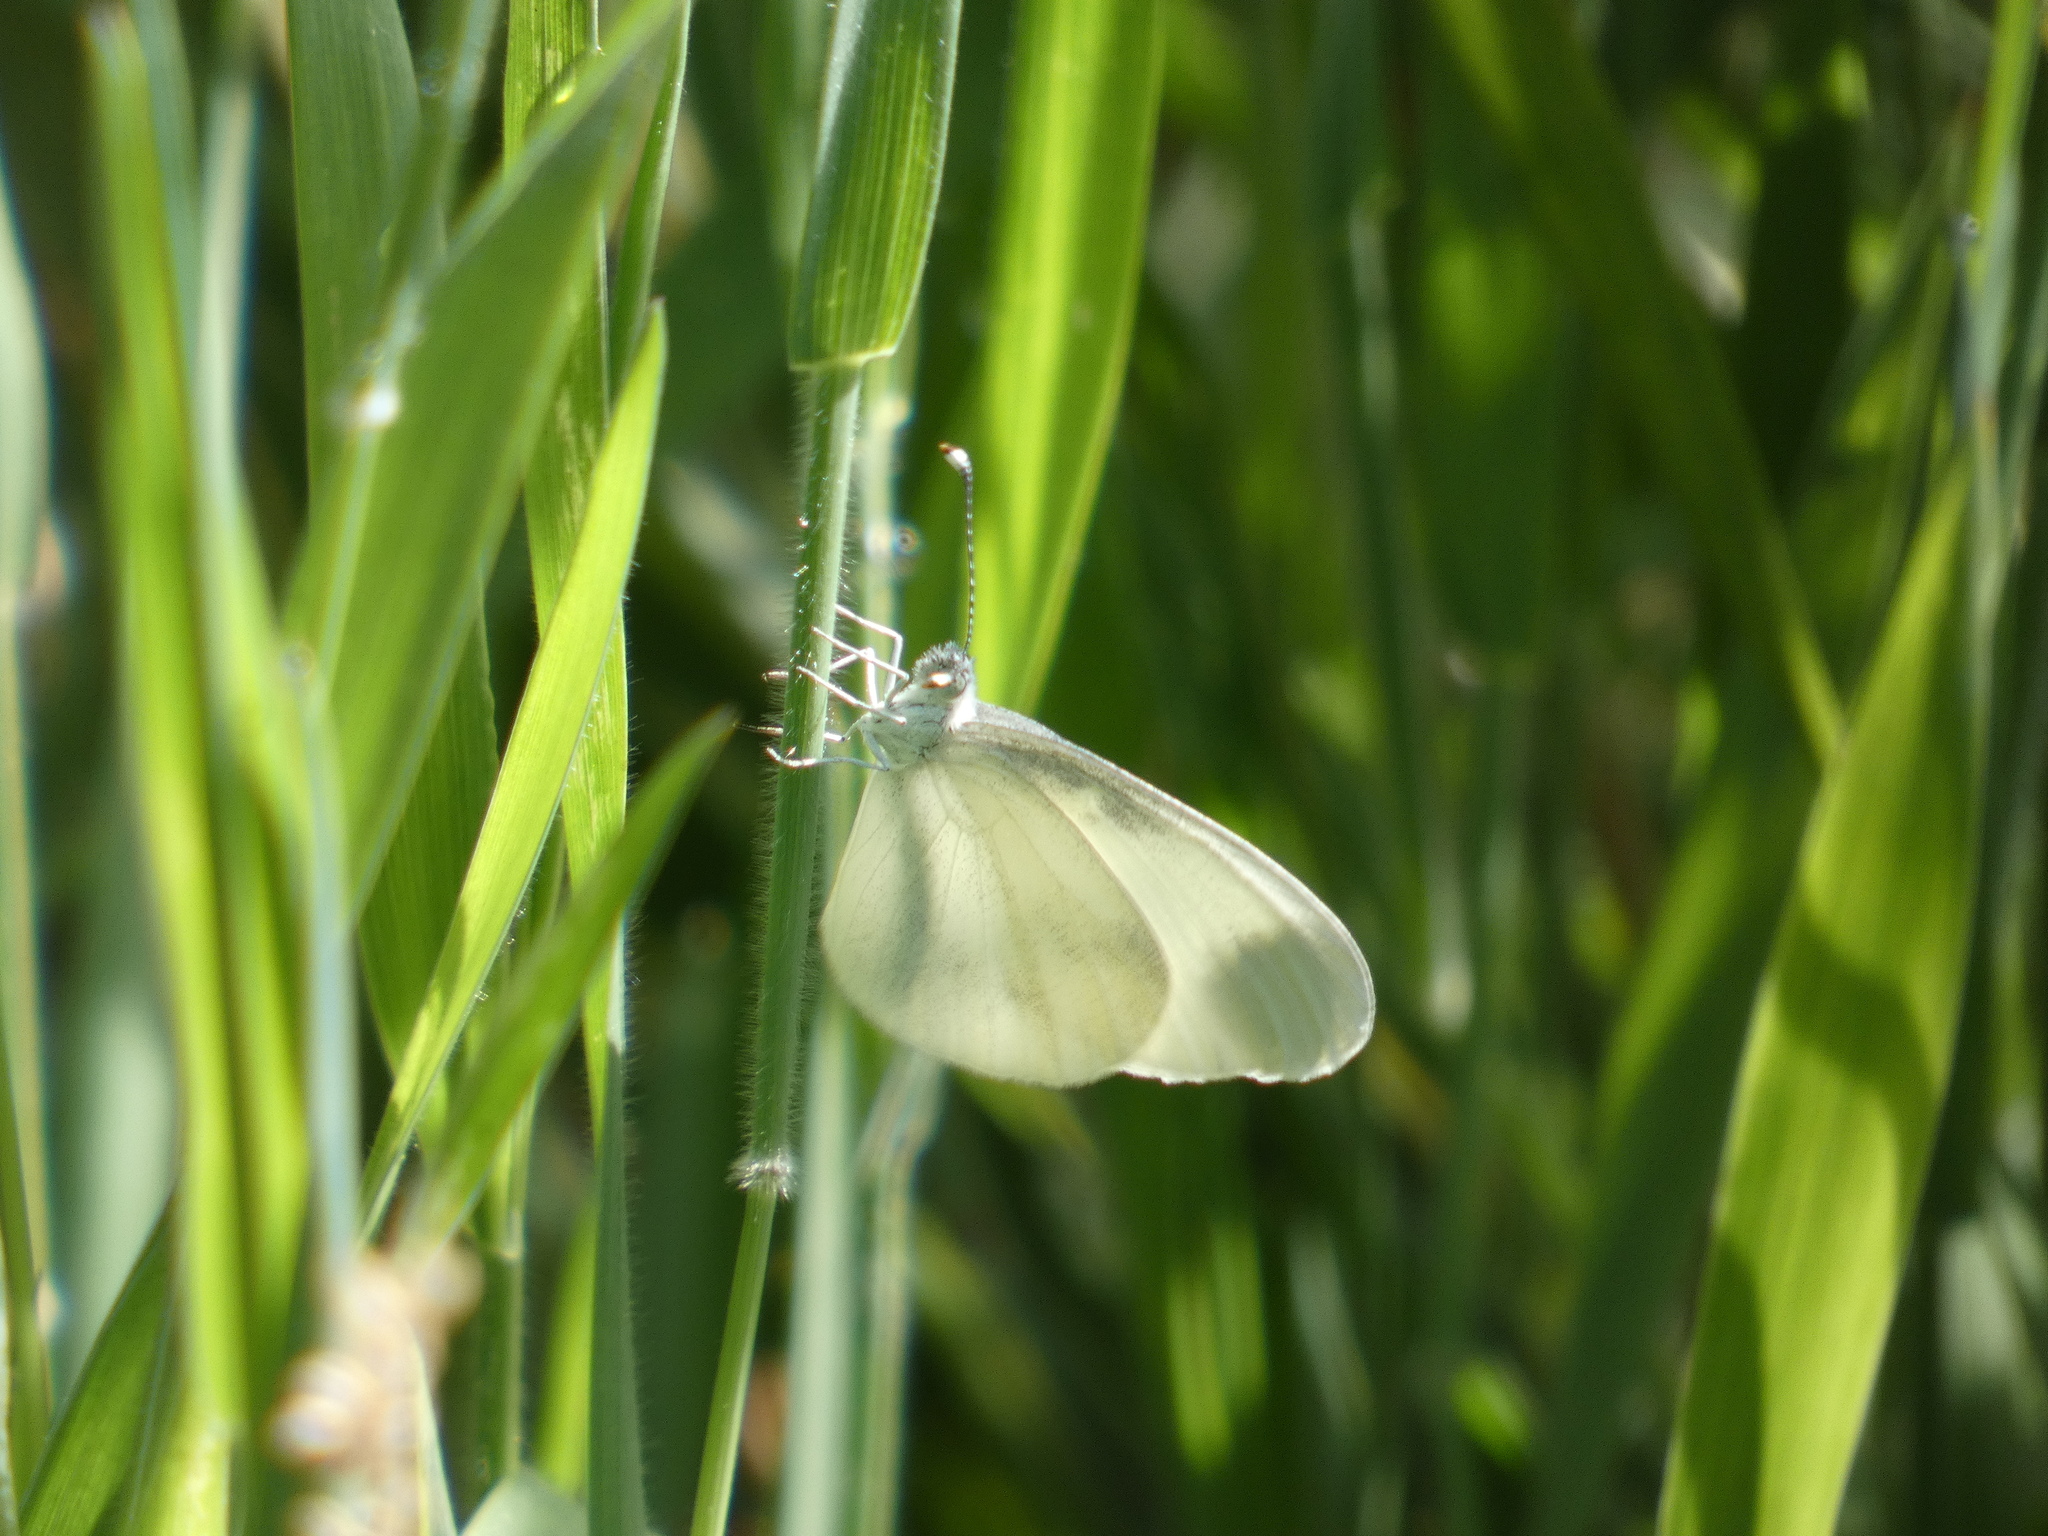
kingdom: Animalia
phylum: Arthropoda
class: Insecta
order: Lepidoptera
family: Pieridae
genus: Leptidea
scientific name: Leptidea sinapis
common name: Wood white
